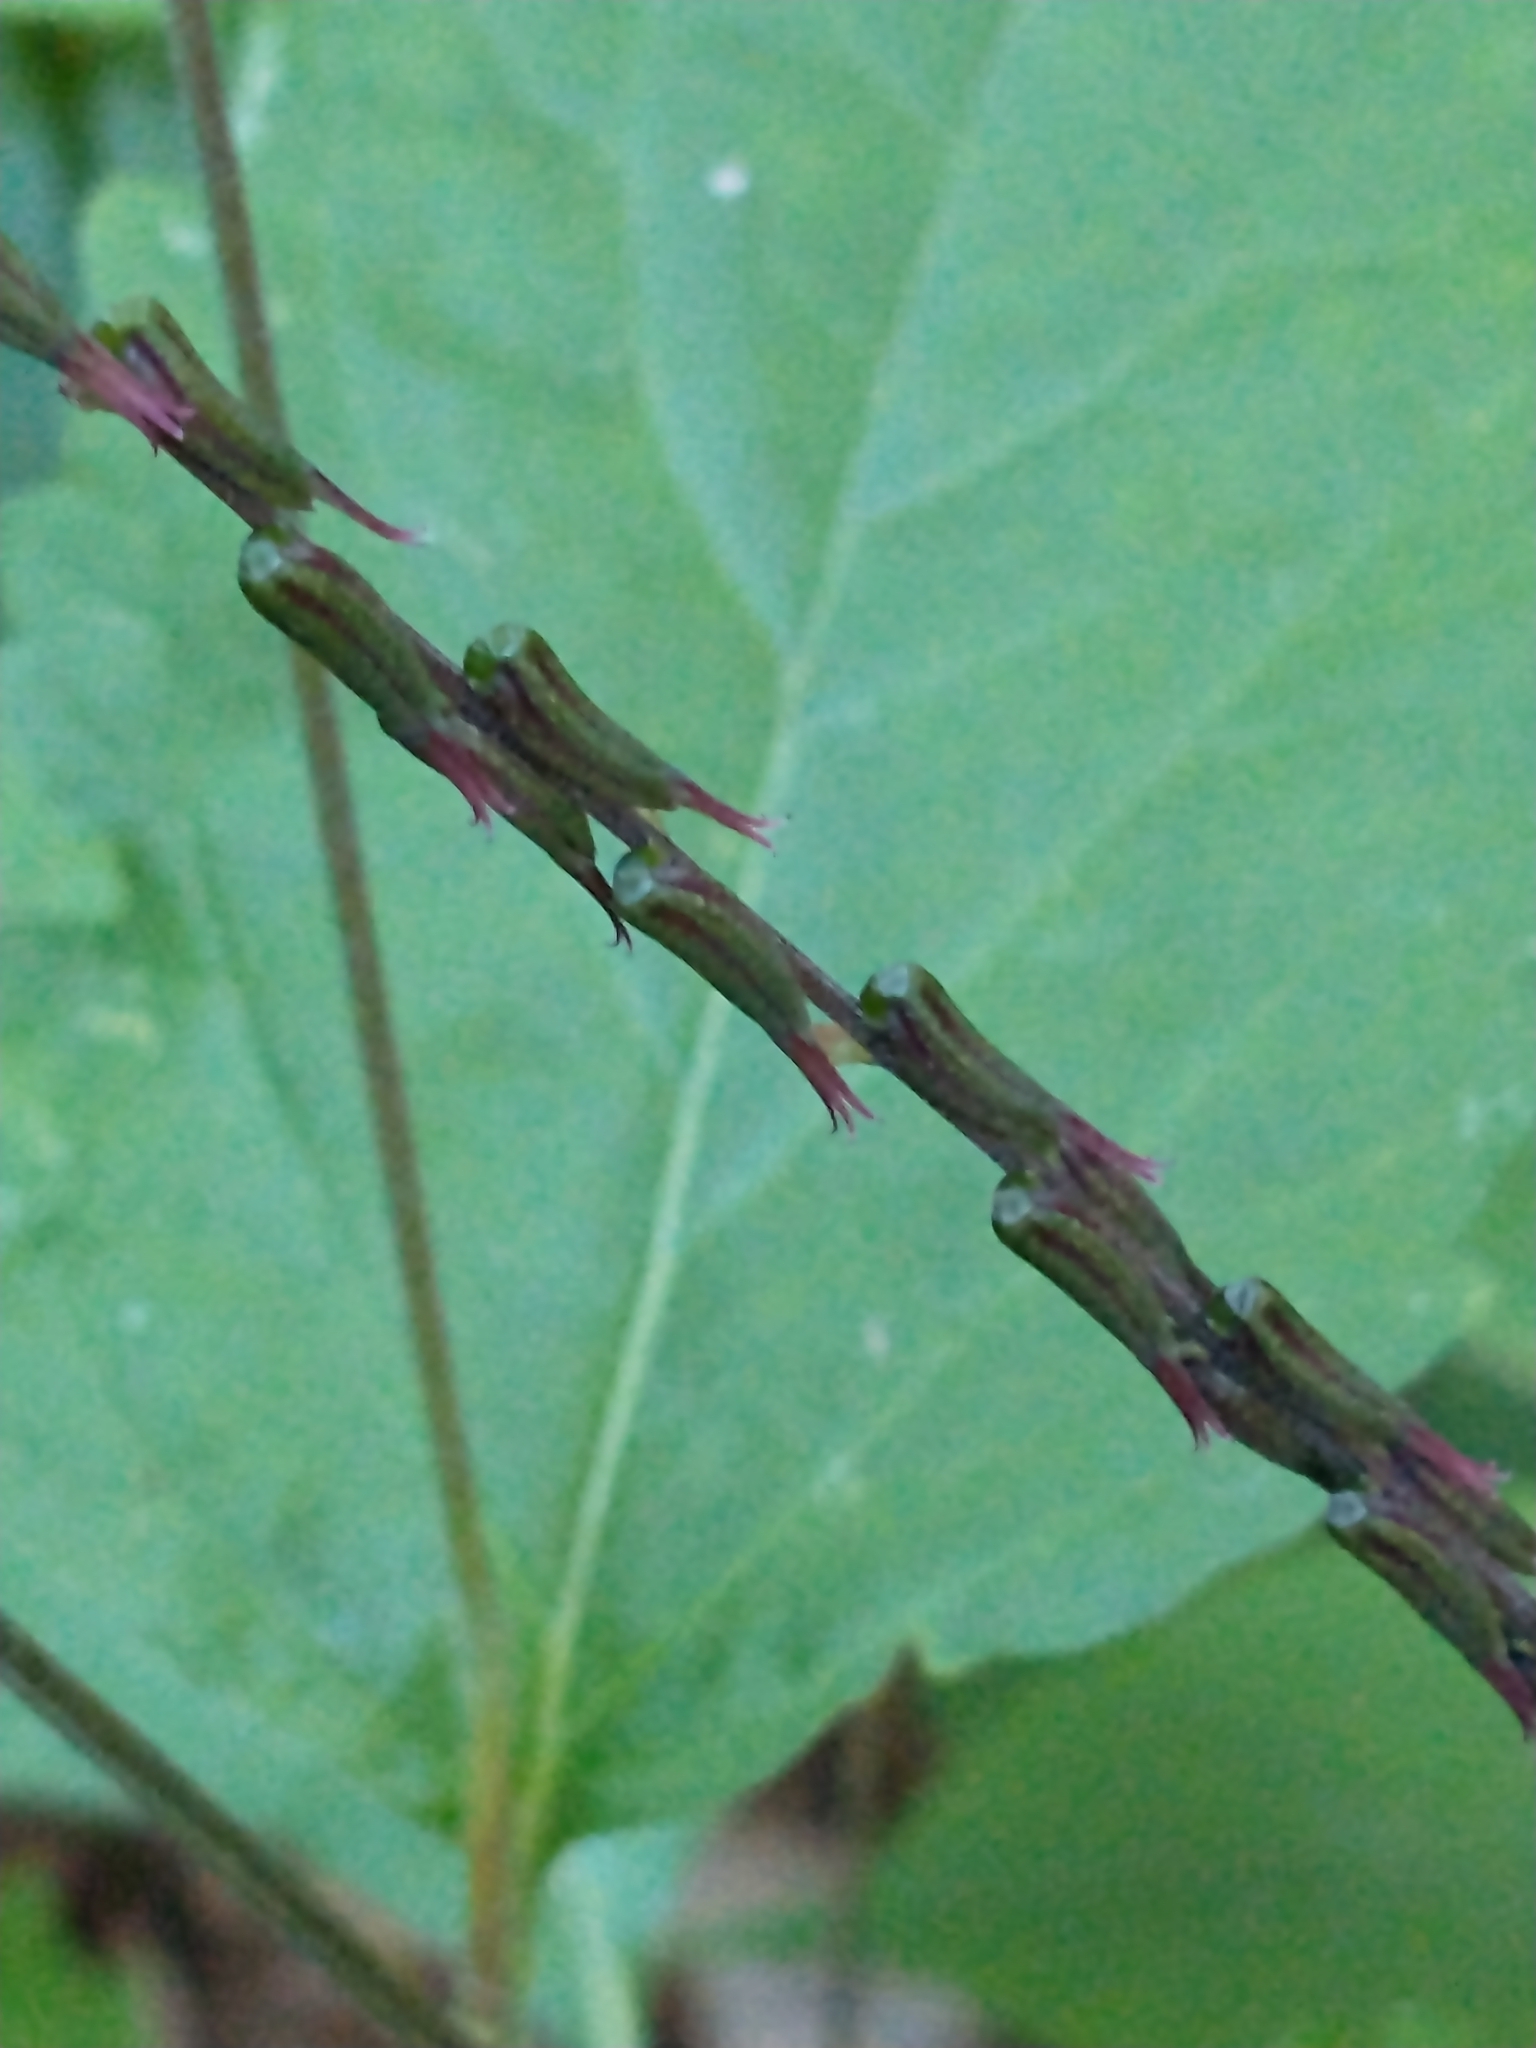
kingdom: Plantae
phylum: Tracheophyta
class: Magnoliopsida
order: Lamiales
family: Phrymaceae
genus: Phryma
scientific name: Phryma leptostachya
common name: American lopseed
